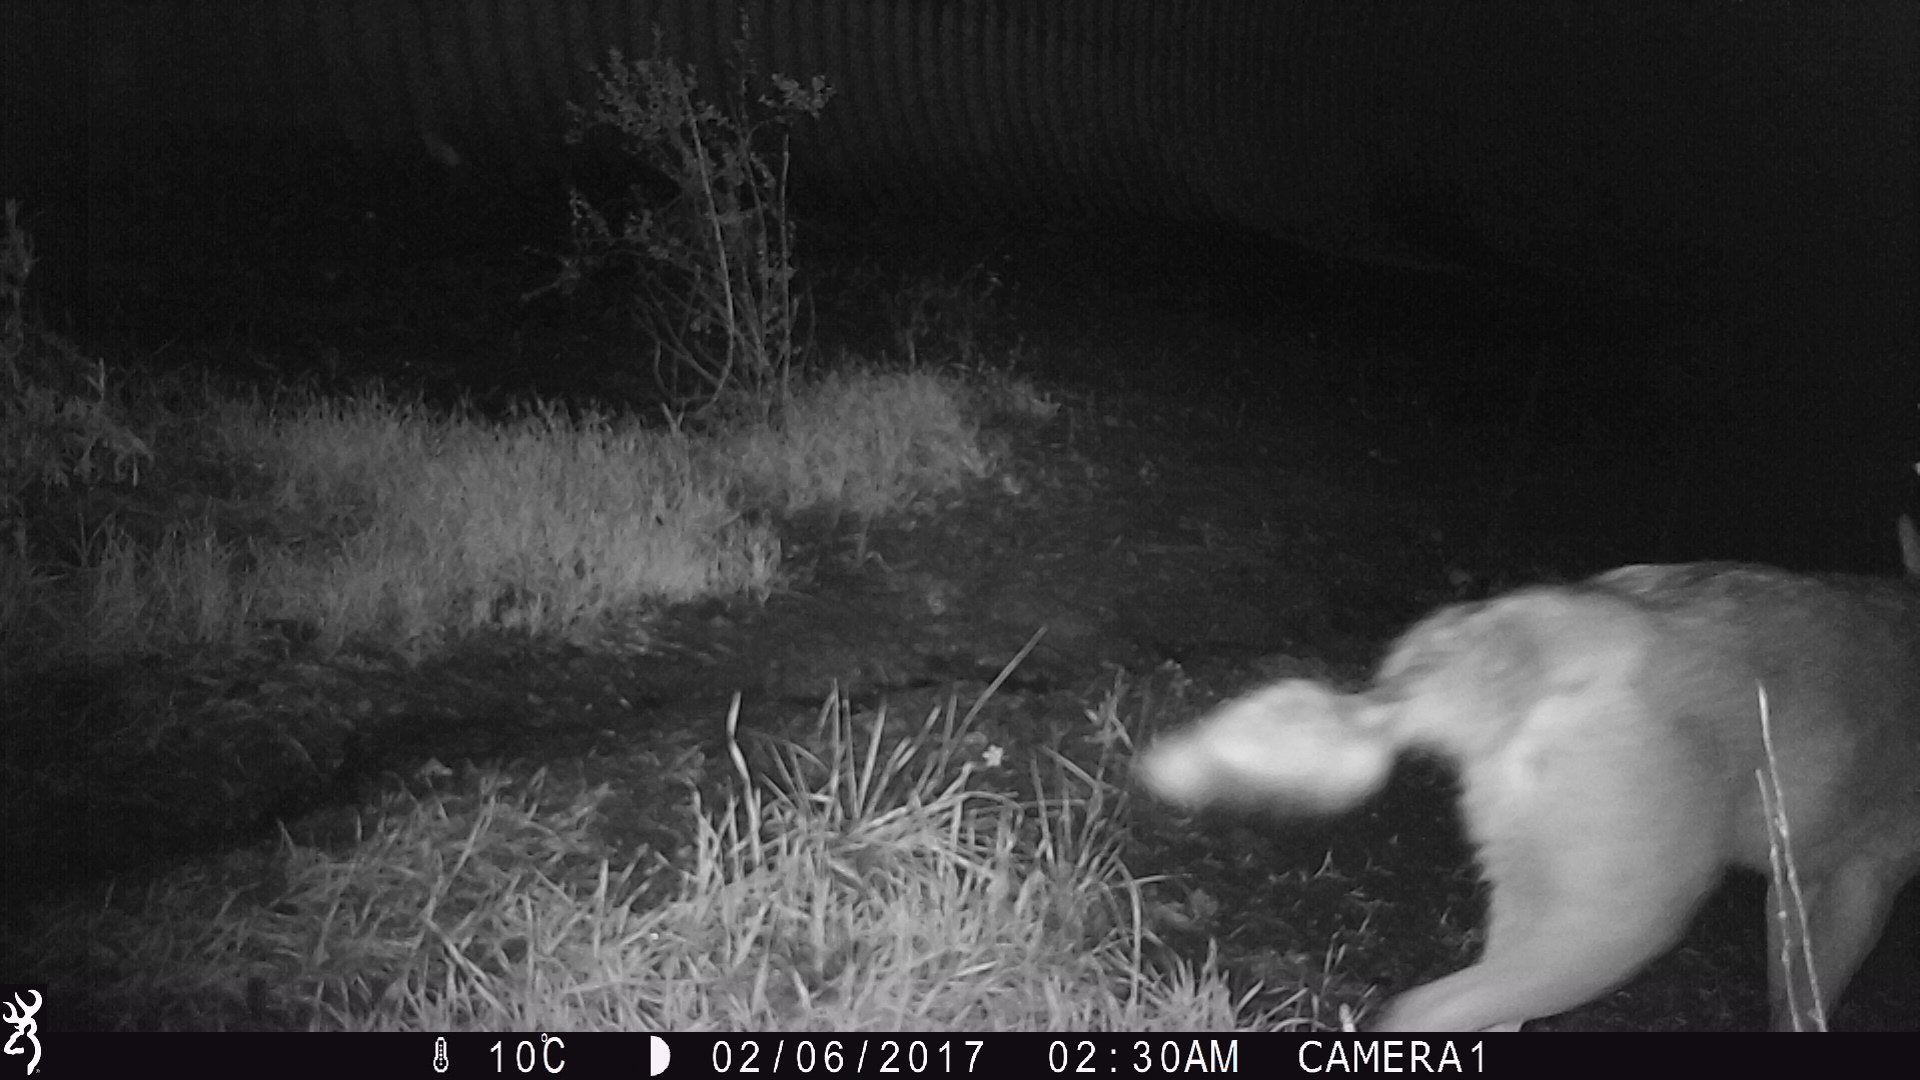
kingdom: Animalia
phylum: Chordata
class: Mammalia
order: Carnivora
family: Canidae
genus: Canis
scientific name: Canis latrans
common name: Coyote
